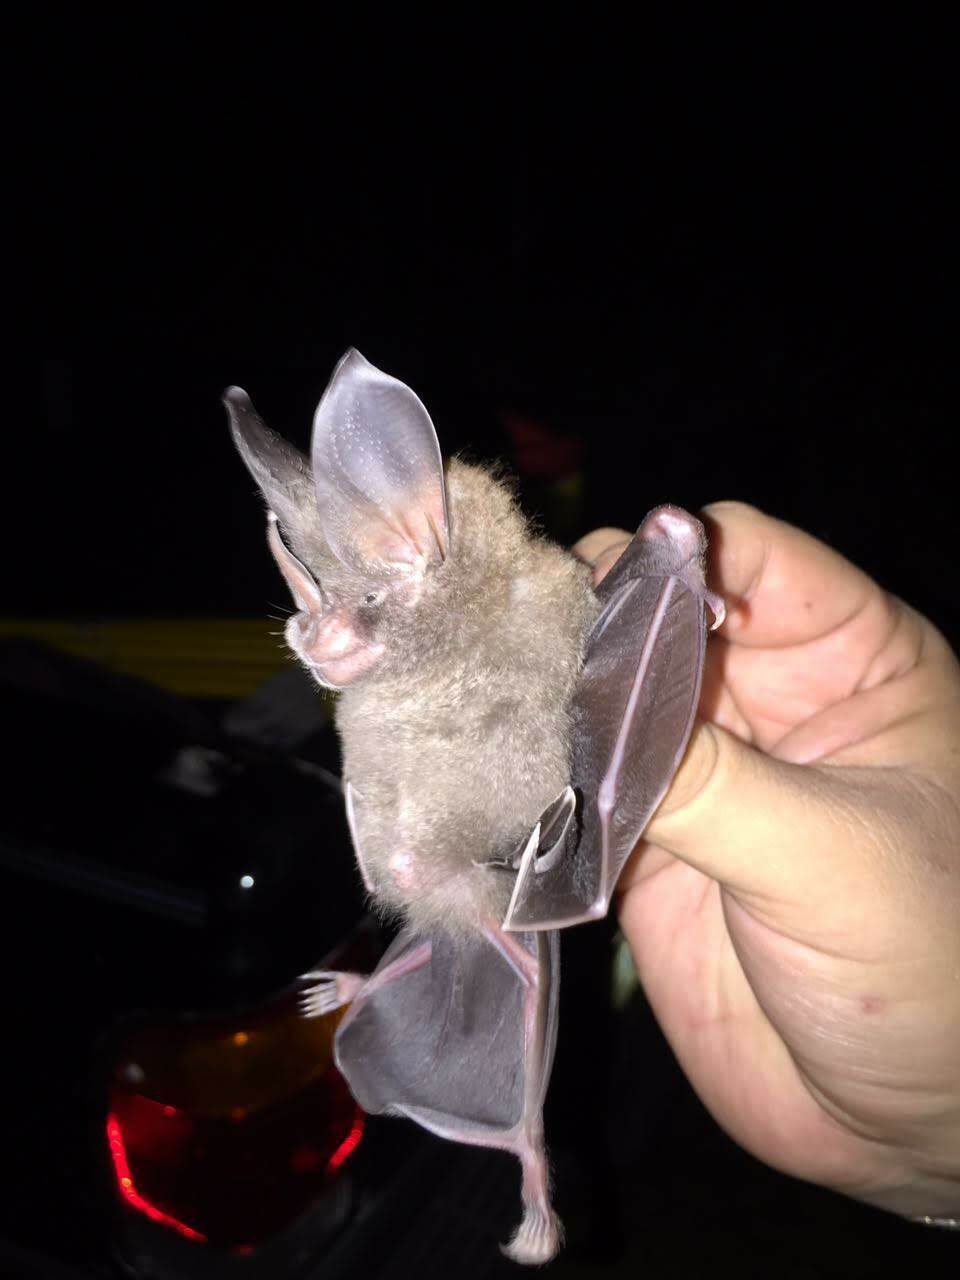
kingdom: Animalia
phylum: Chordata
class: Mammalia
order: Chiroptera
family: Phyllostomidae
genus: Mimon
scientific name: Mimon cozumelae
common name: Cozumelan golden bat
